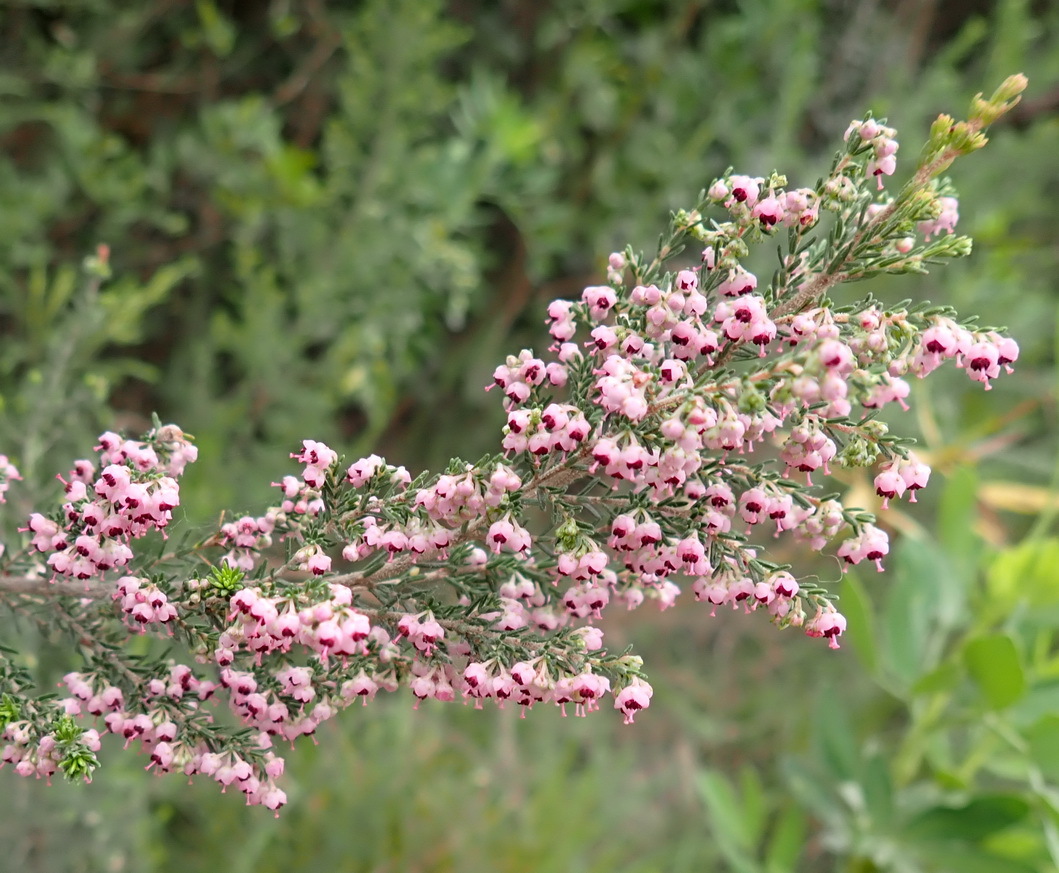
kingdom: Plantae
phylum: Tracheophyta
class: Magnoliopsida
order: Ericales
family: Ericaceae
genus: Erica
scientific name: Erica sparsa
